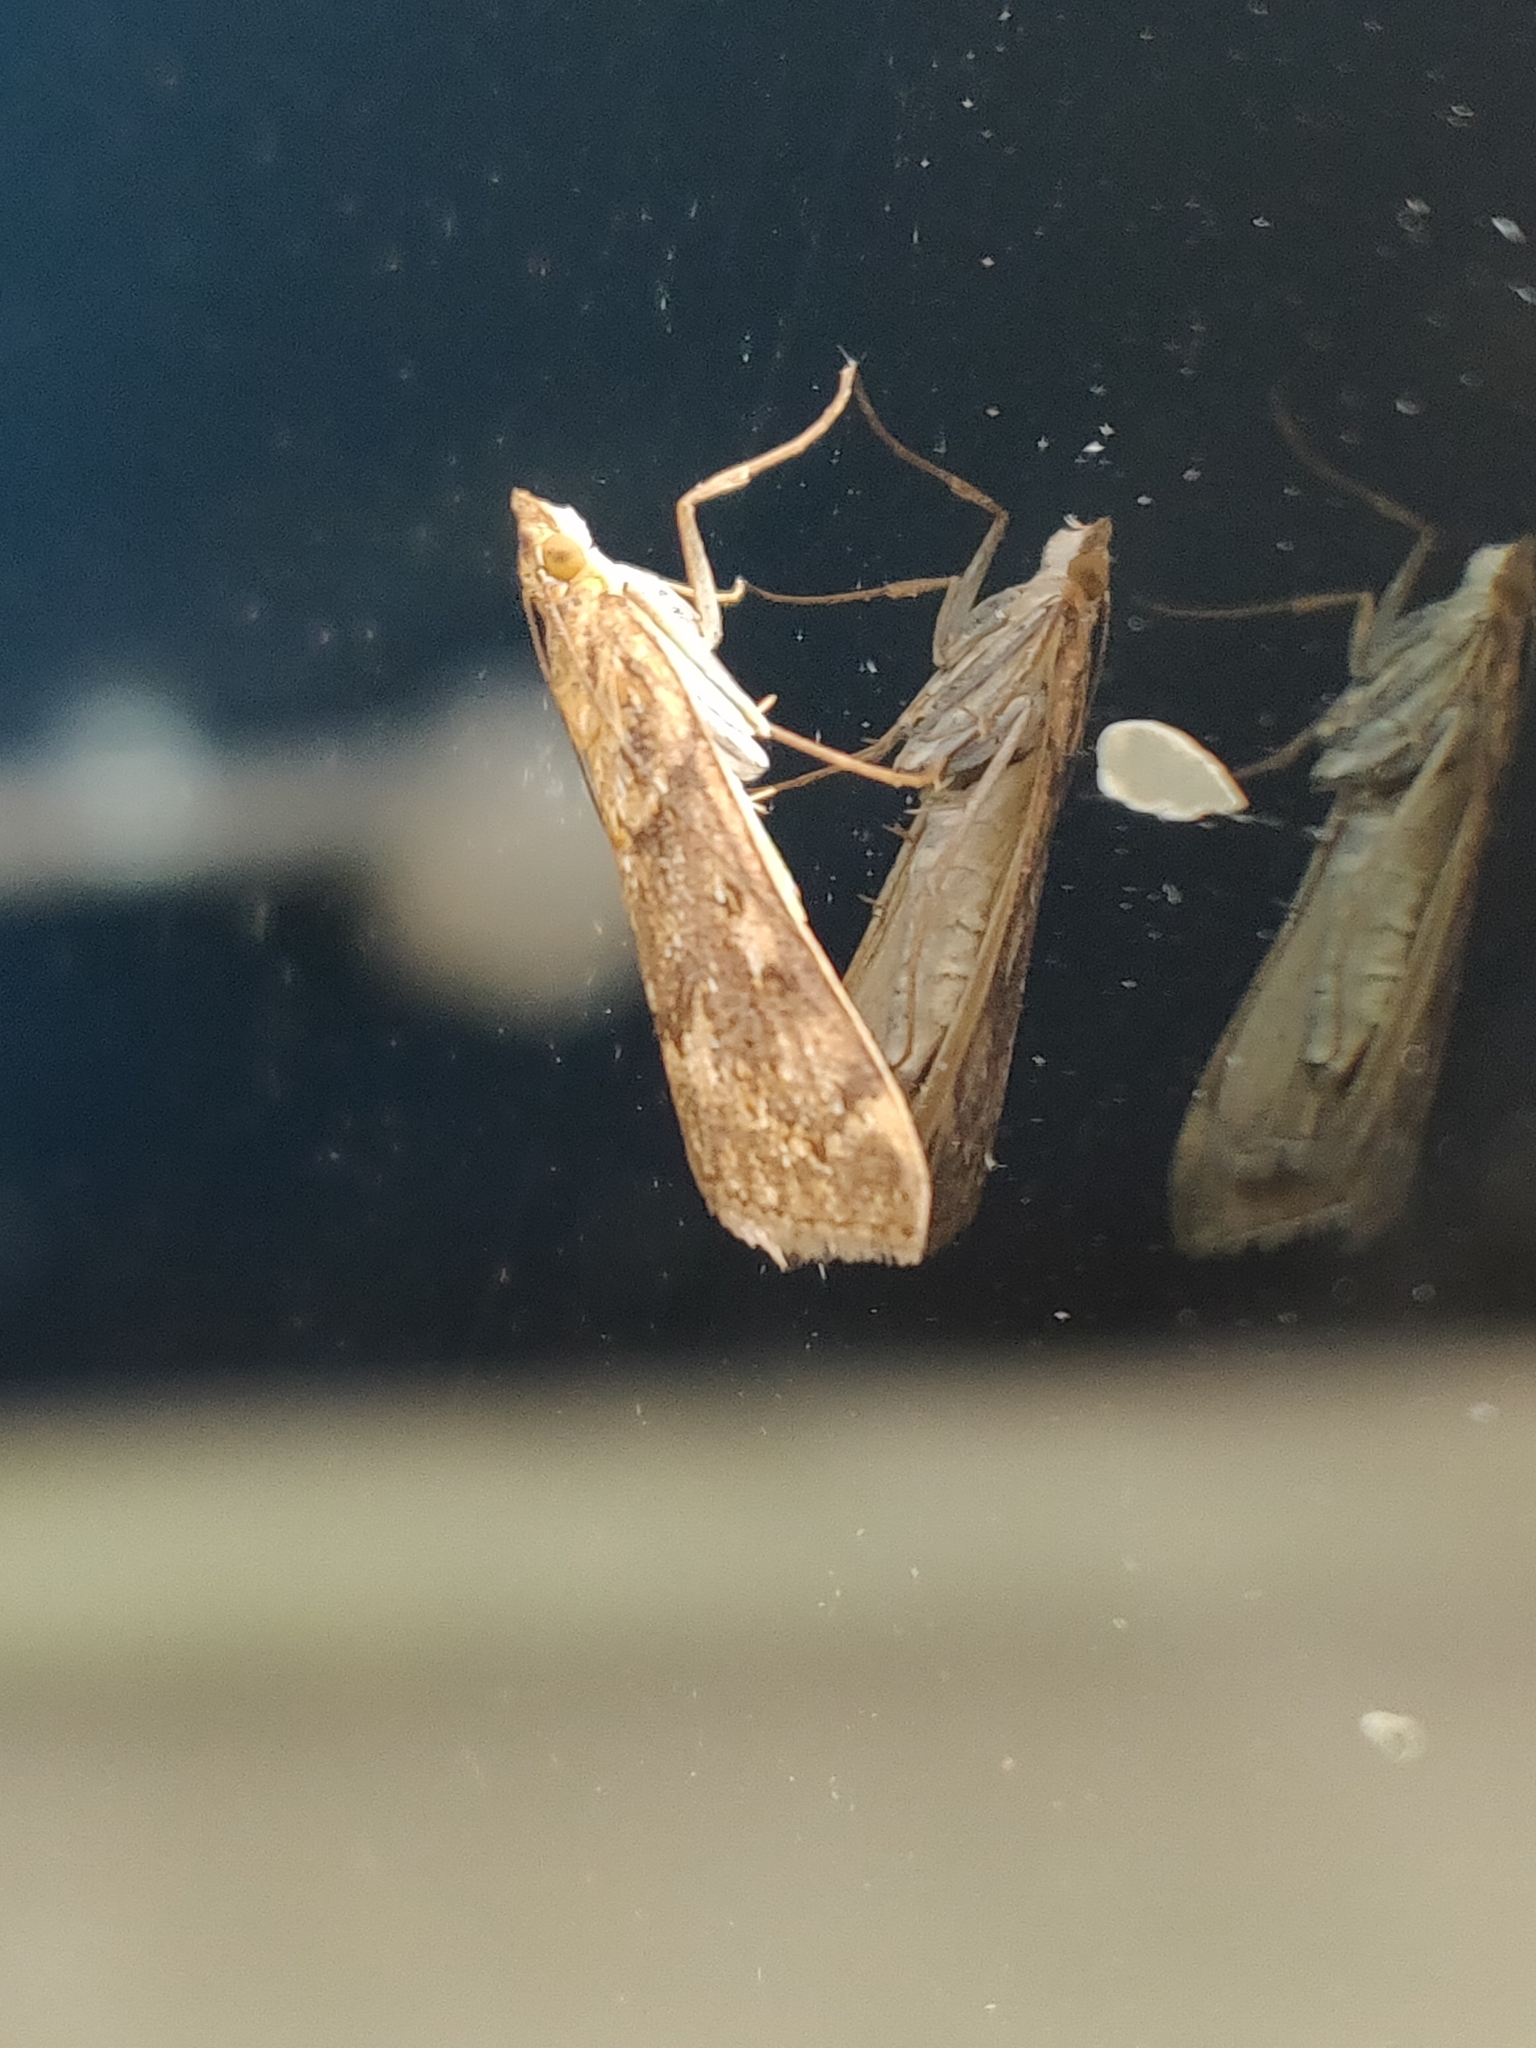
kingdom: Animalia
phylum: Arthropoda
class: Insecta
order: Lepidoptera
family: Crambidae
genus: Achyra
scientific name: Achyra affinitalis
